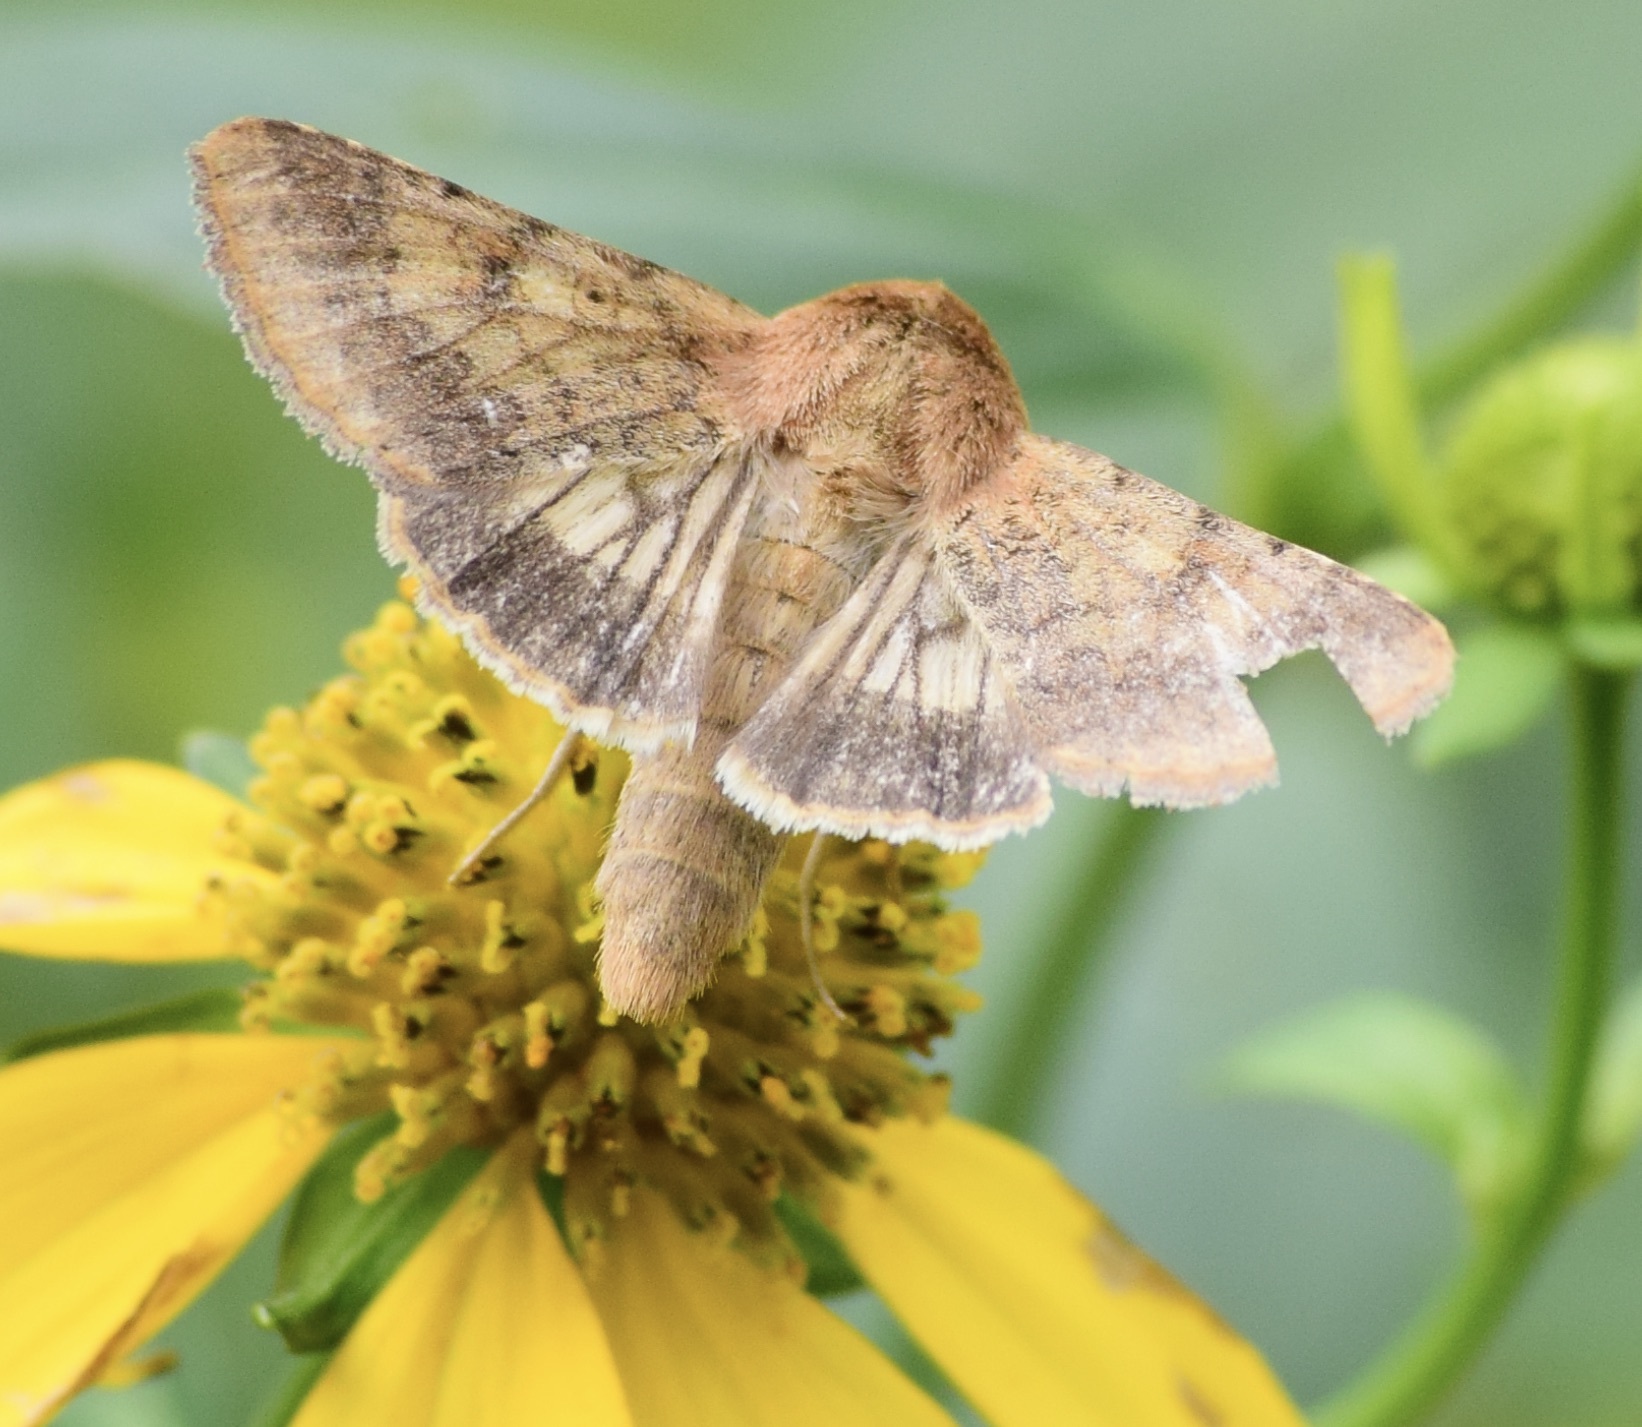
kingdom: Animalia
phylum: Arthropoda
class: Insecta
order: Lepidoptera
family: Noctuidae
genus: Helicoverpa
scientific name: Helicoverpa zea
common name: Bollworm
